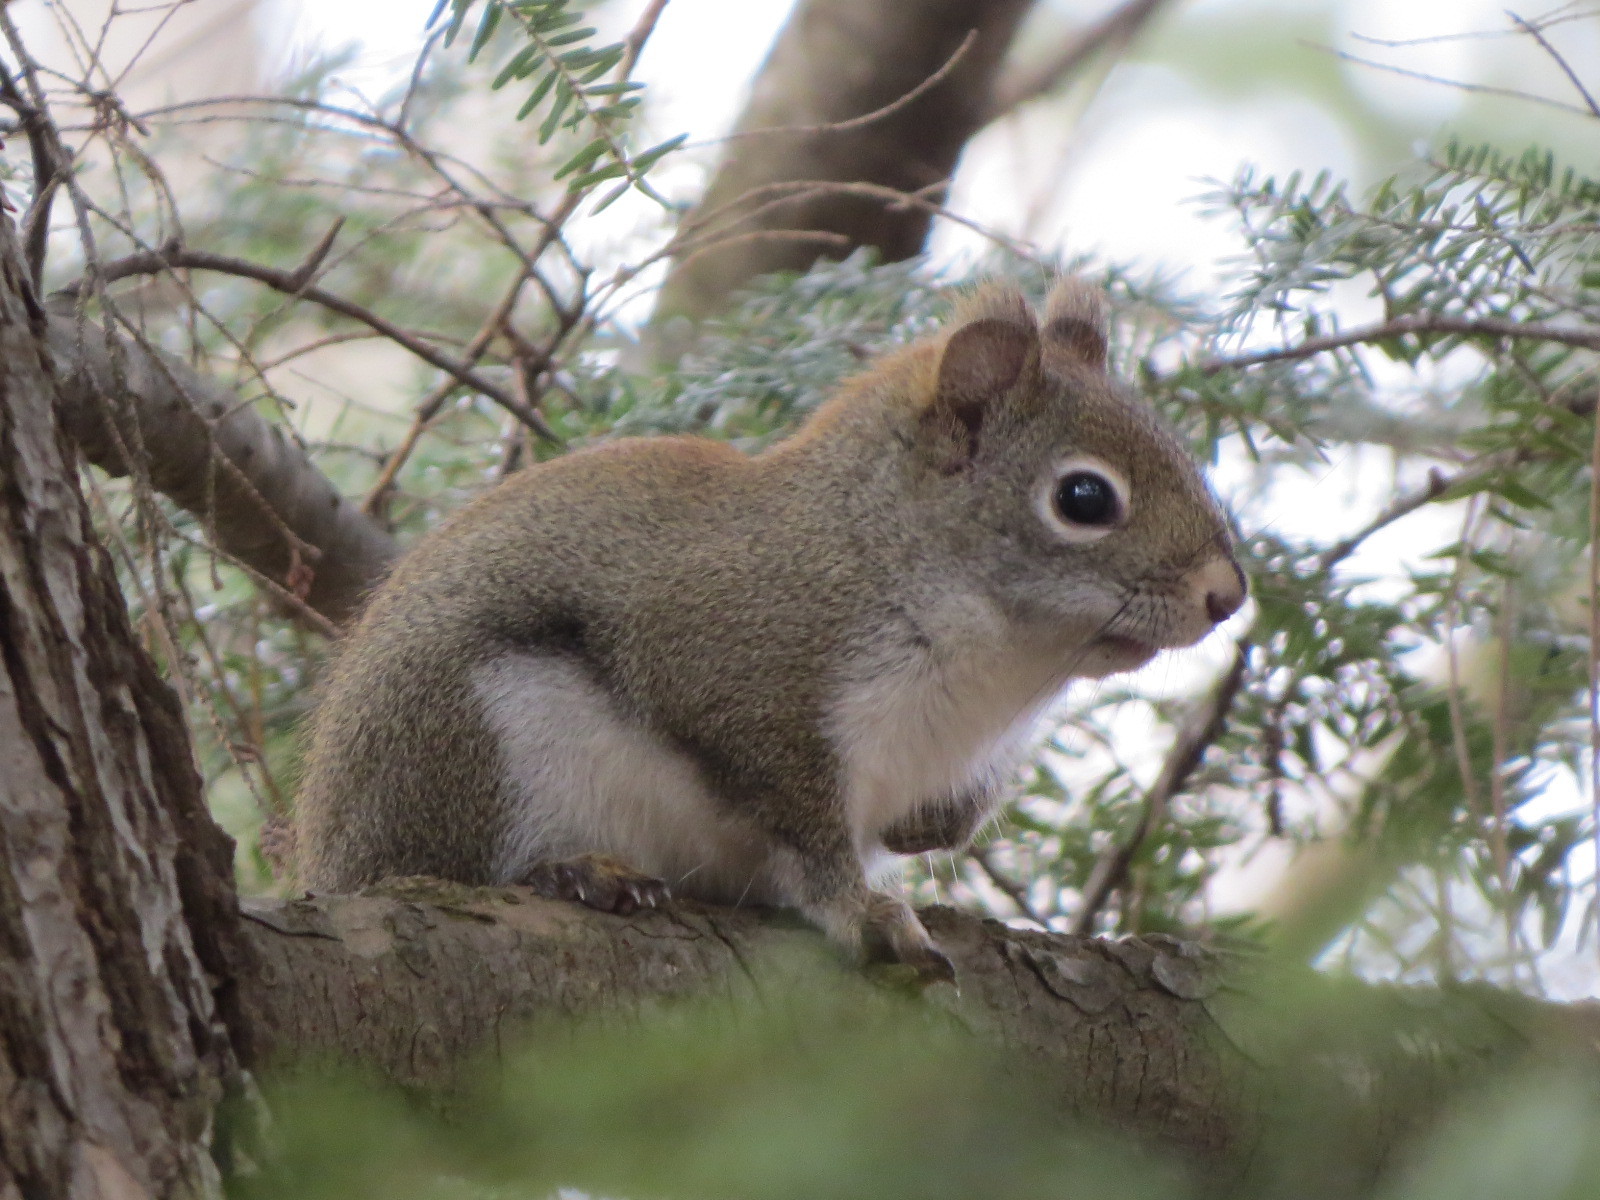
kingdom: Animalia
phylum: Chordata
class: Mammalia
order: Rodentia
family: Sciuridae
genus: Tamiasciurus
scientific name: Tamiasciurus hudsonicus
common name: Red squirrel
